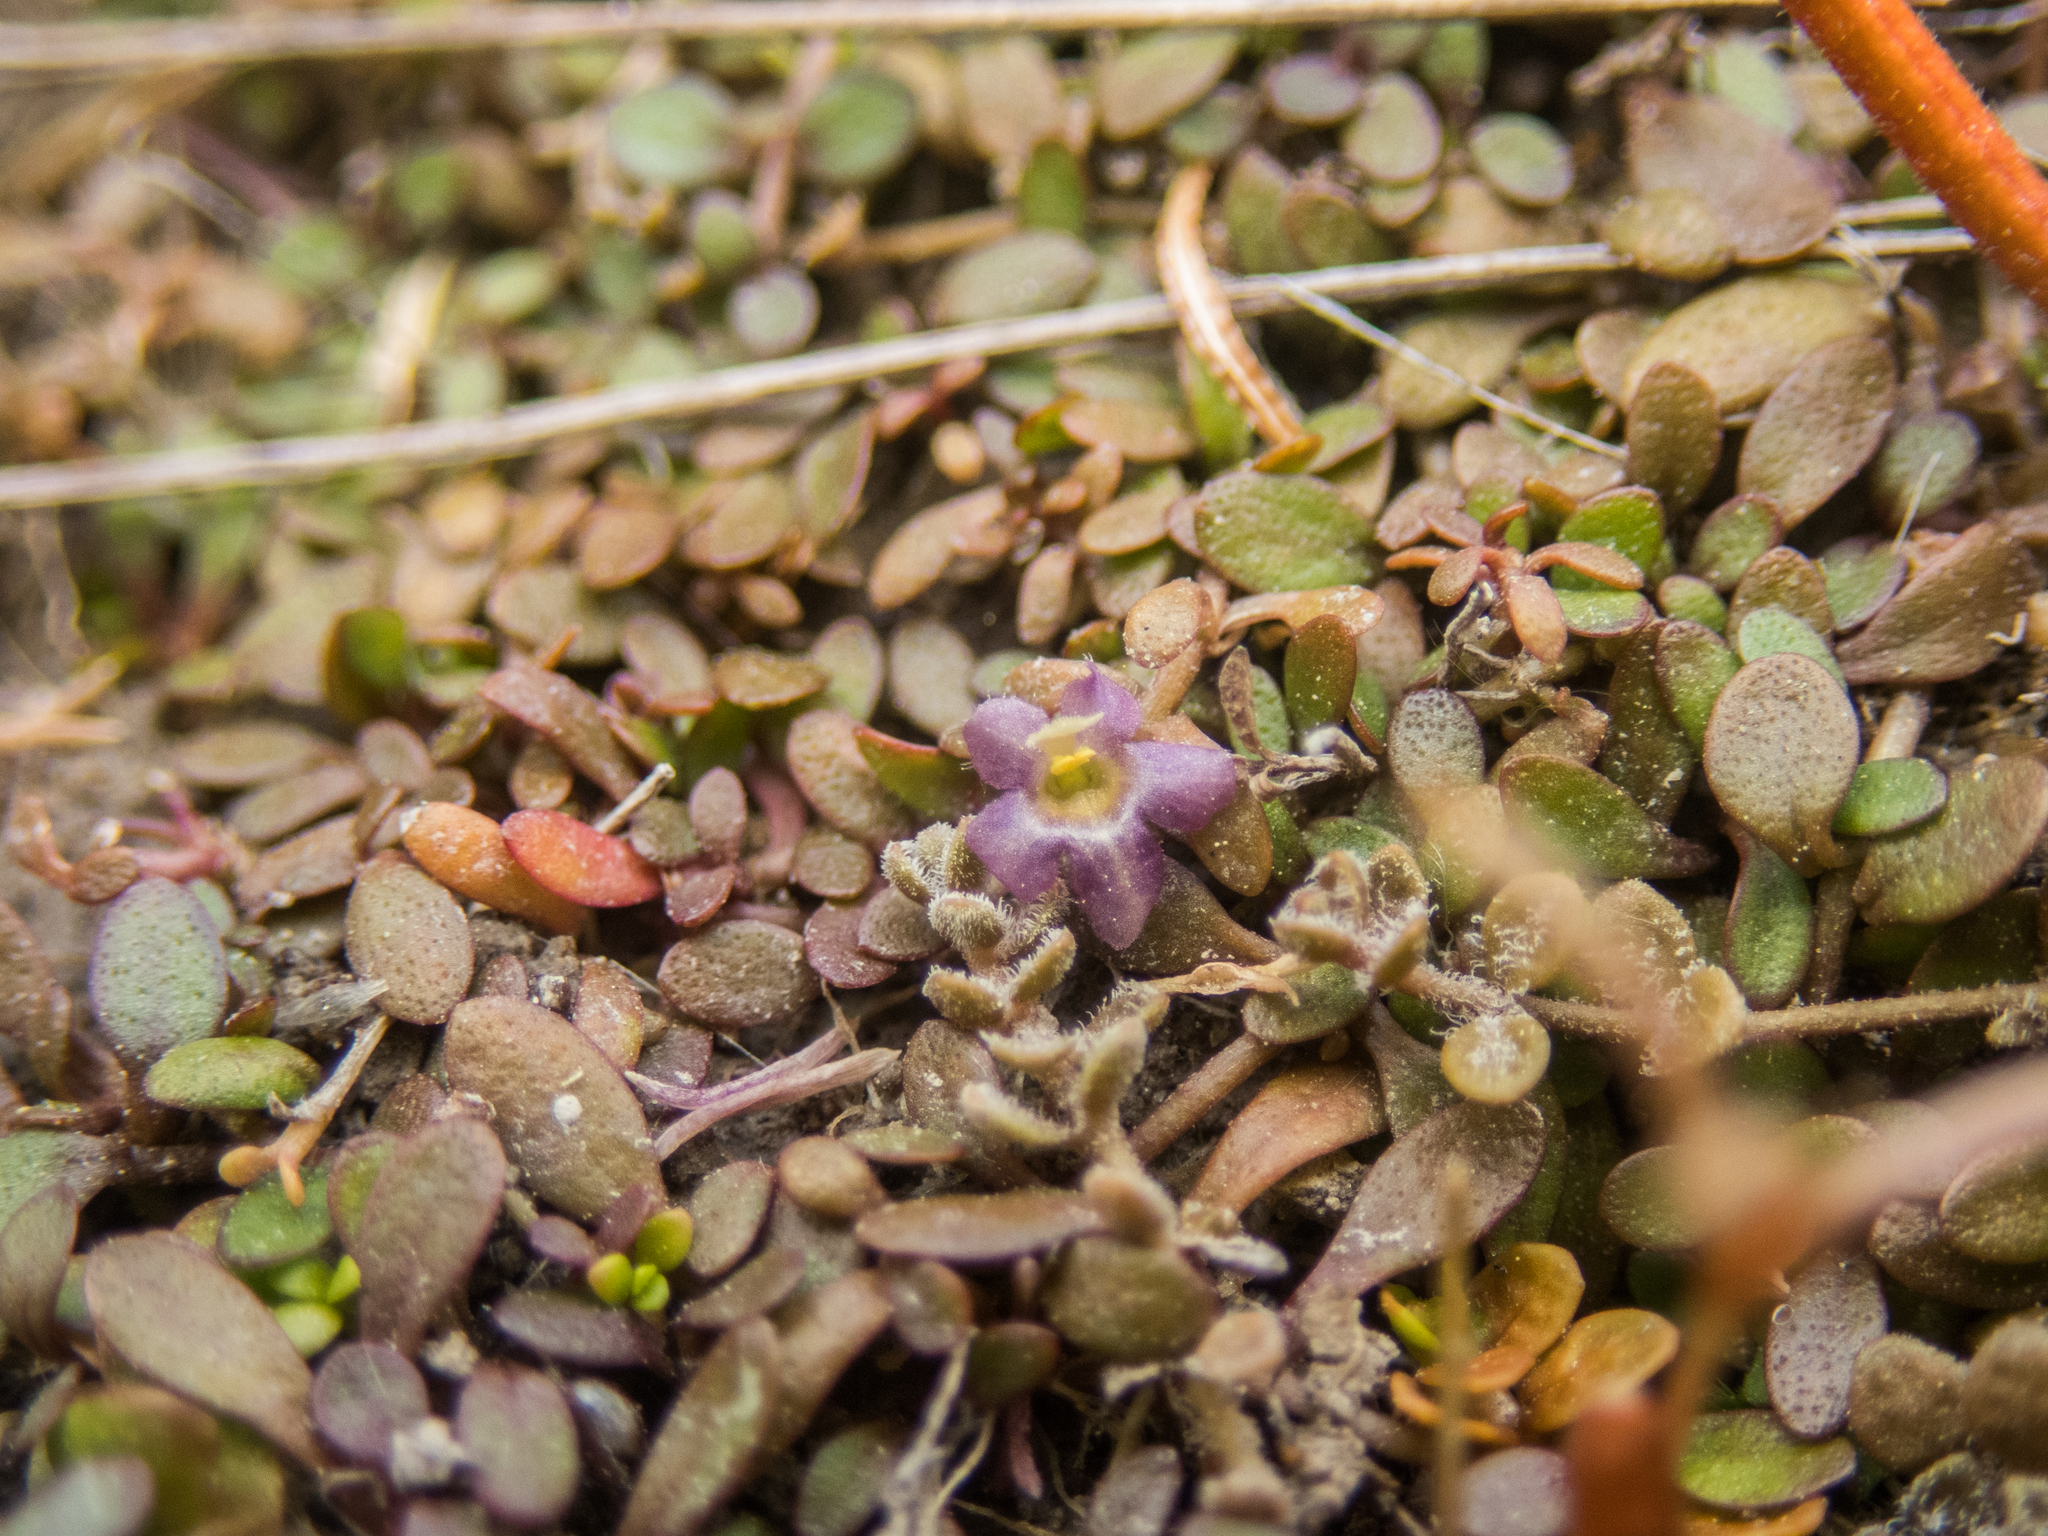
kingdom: Plantae
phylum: Tracheophyta
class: Magnoliopsida
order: Lamiales
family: Phrymaceae
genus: Glossostigma
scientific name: Glossostigma elatinoides
